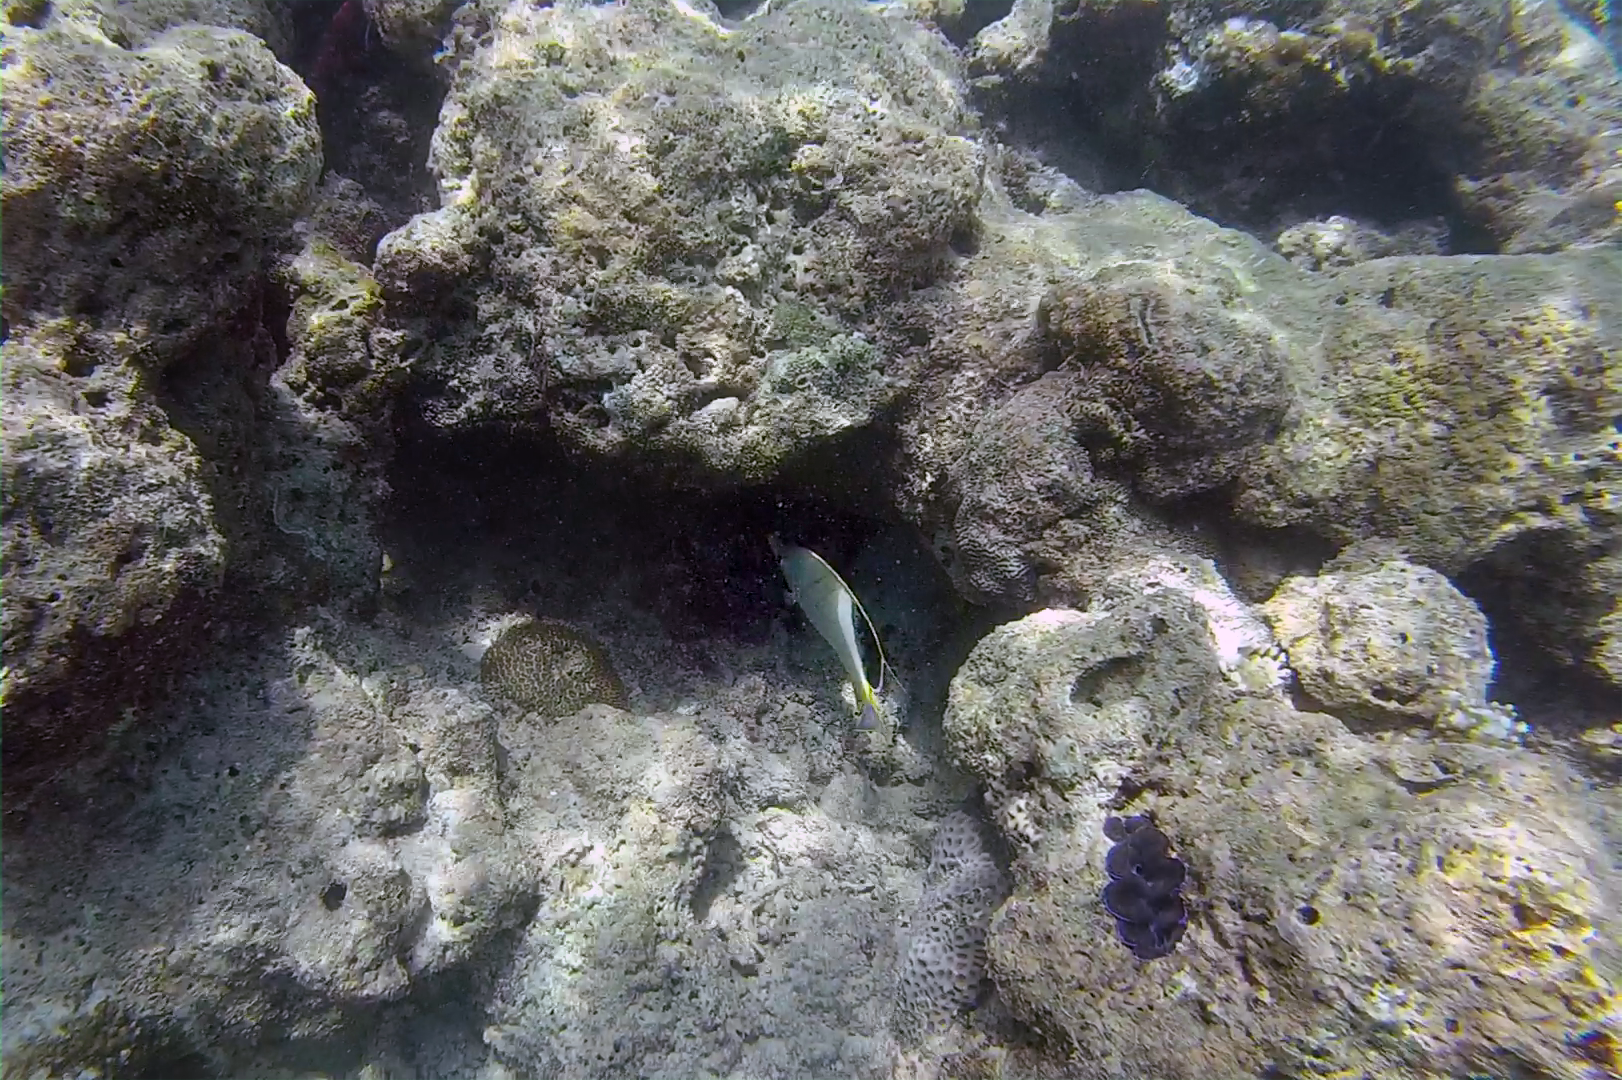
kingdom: Animalia
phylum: Chordata
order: Perciformes
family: Chaetodontidae
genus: Chaetodon
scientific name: Chaetodon xanthocephalus
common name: Yellowhead butterflyfish
